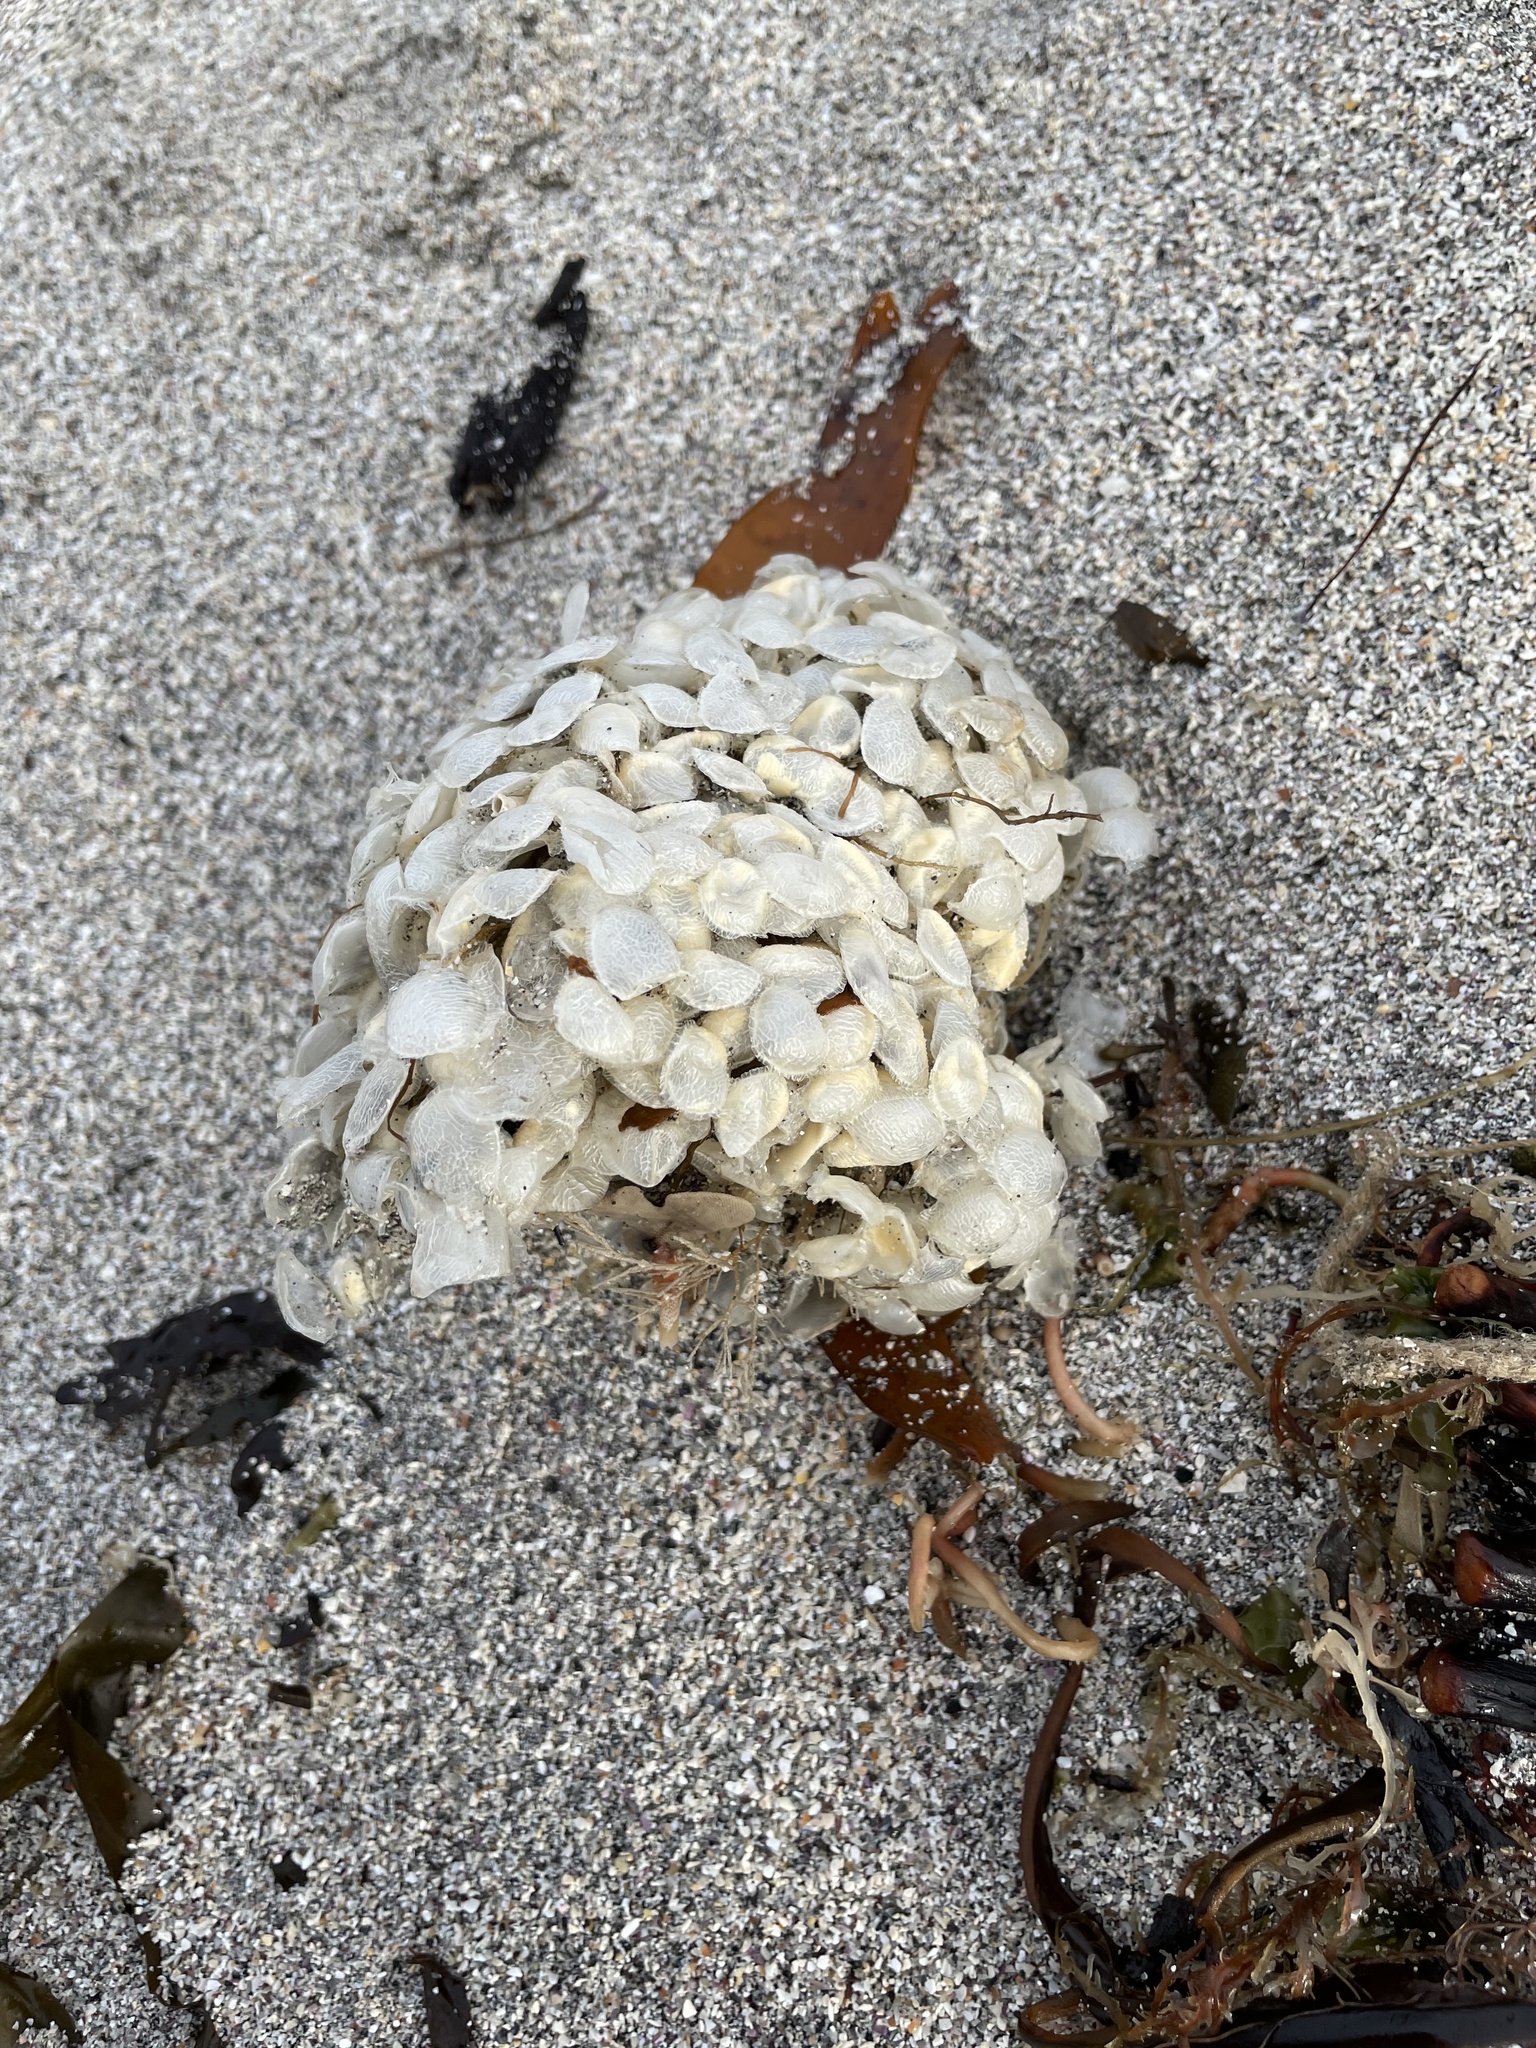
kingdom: Animalia
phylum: Mollusca
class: Gastropoda
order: Neogastropoda
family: Buccinidae
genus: Buccinum
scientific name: Buccinum undatum
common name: Common whelk
